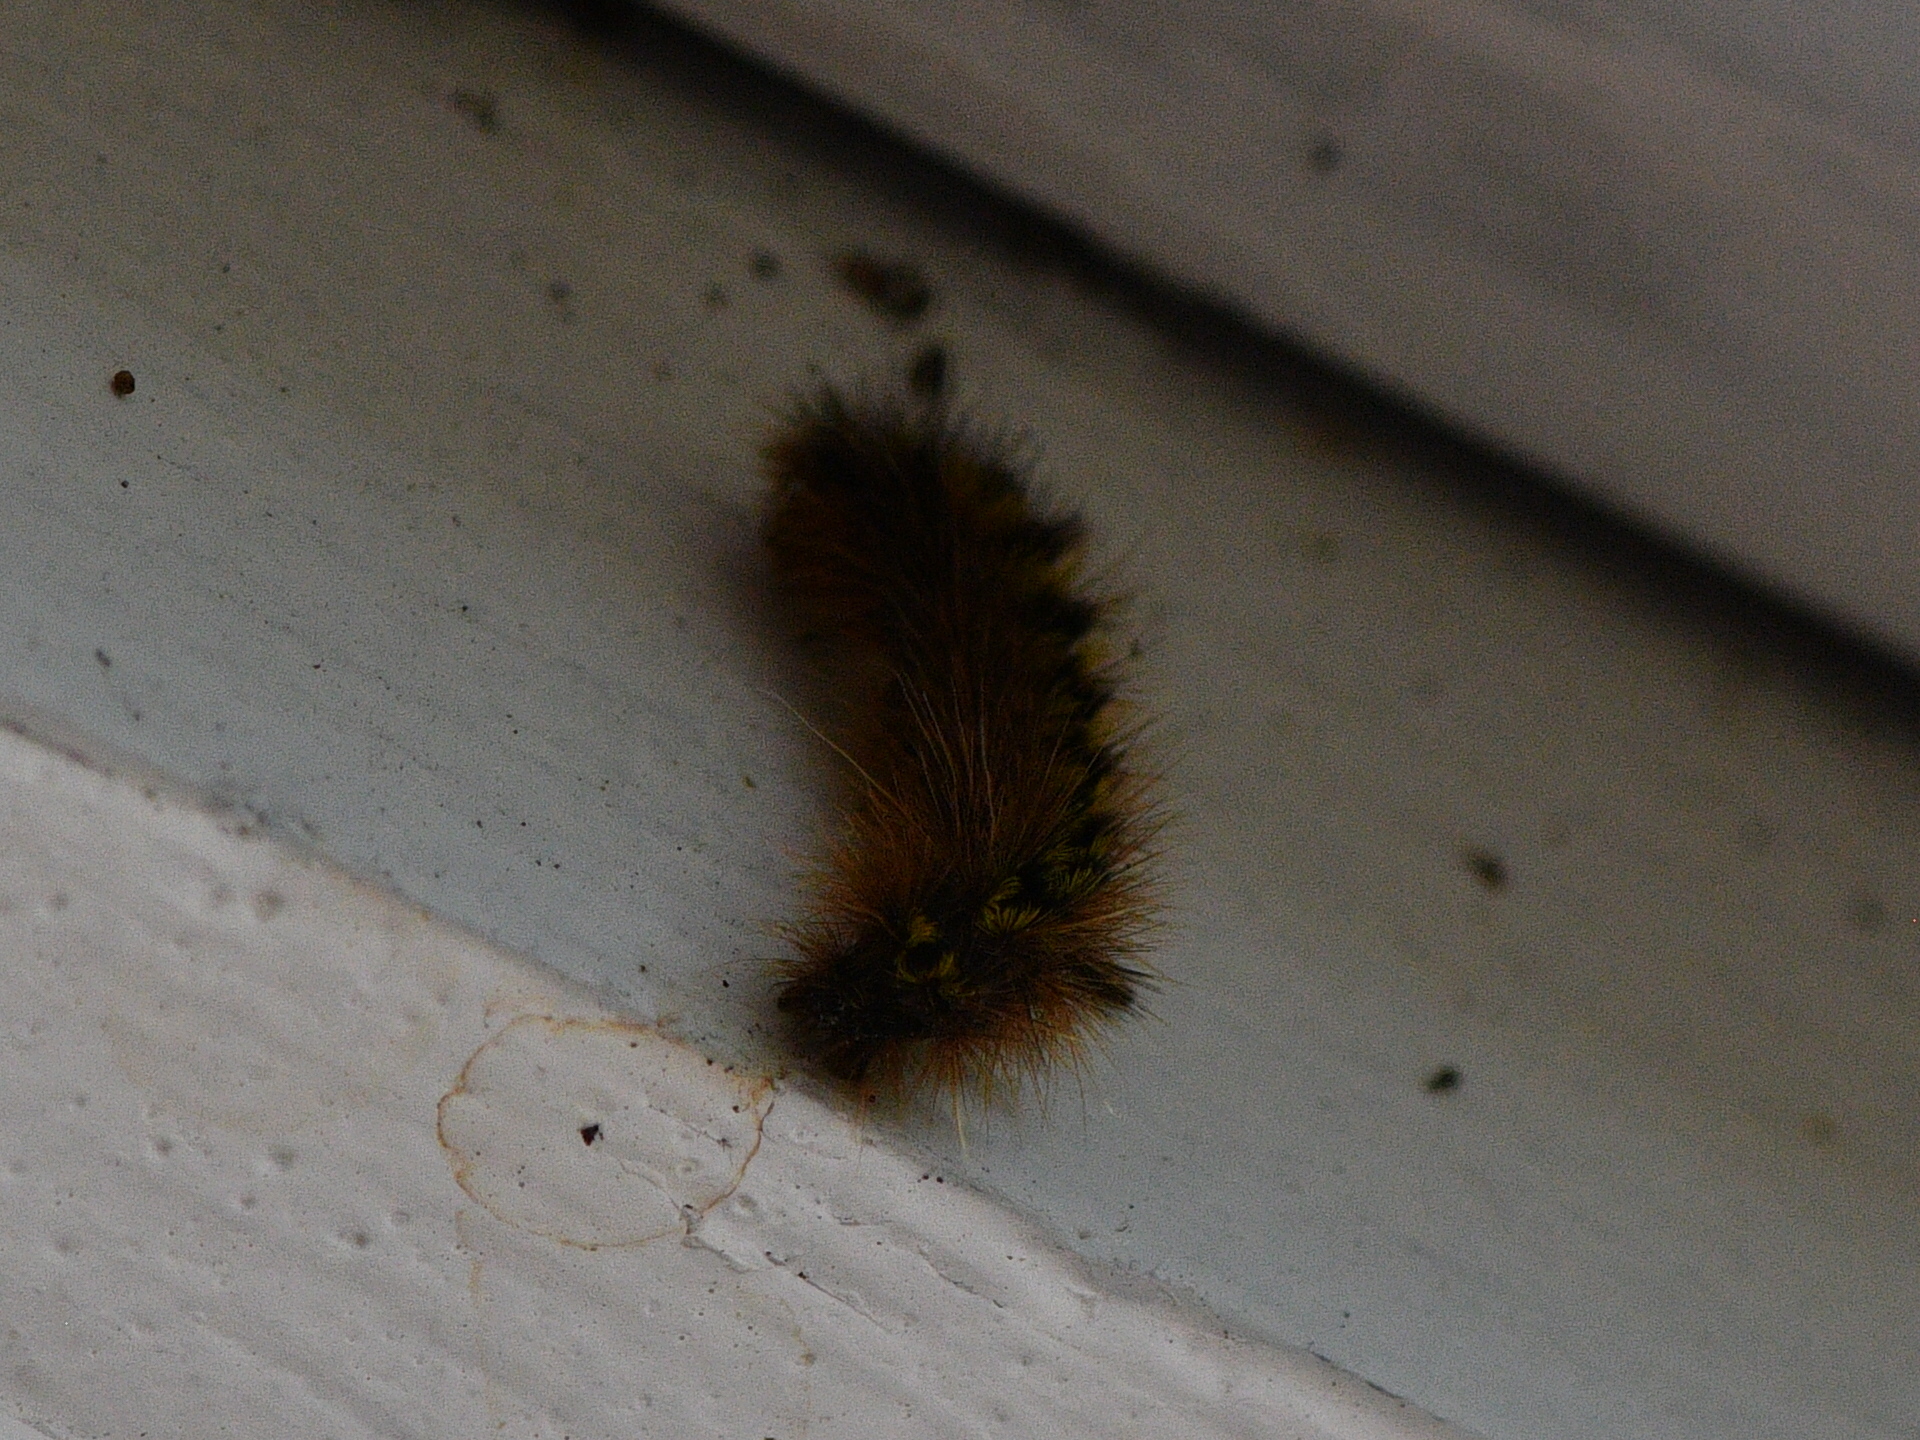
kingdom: Animalia
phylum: Arthropoda
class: Insecta
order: Lepidoptera
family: Erebidae
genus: Lophocampa
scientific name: Lophocampa argentata
